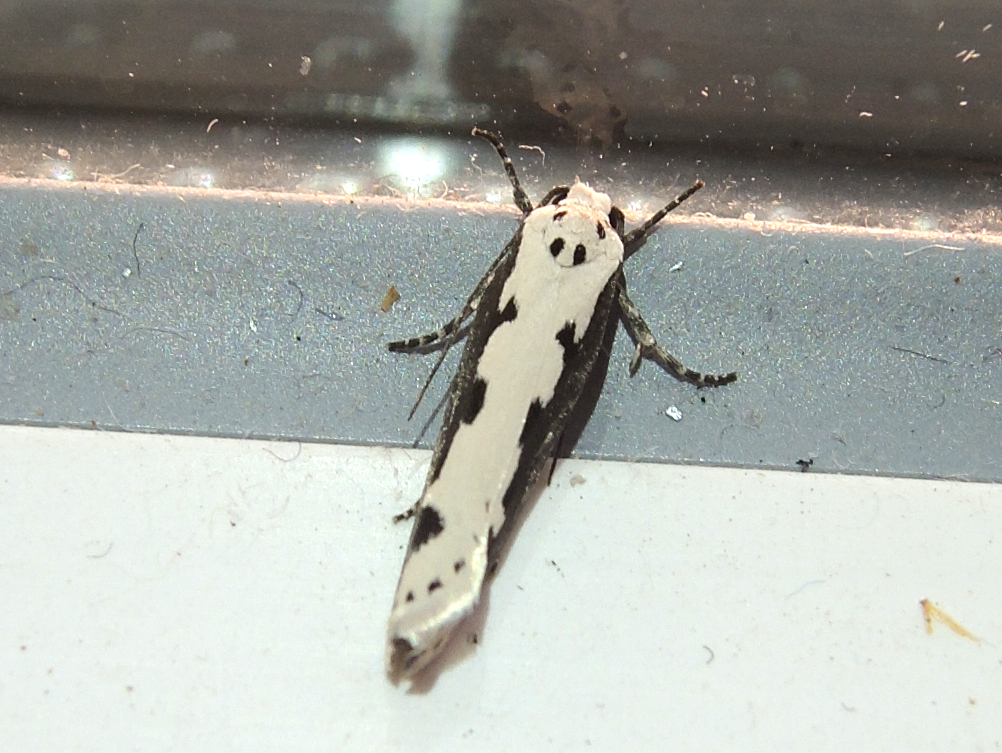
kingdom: Animalia
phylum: Arthropoda
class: Insecta
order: Lepidoptera
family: Ethmiidae
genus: Ethmia
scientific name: Ethmia bipunctella
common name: Bordered ermel
